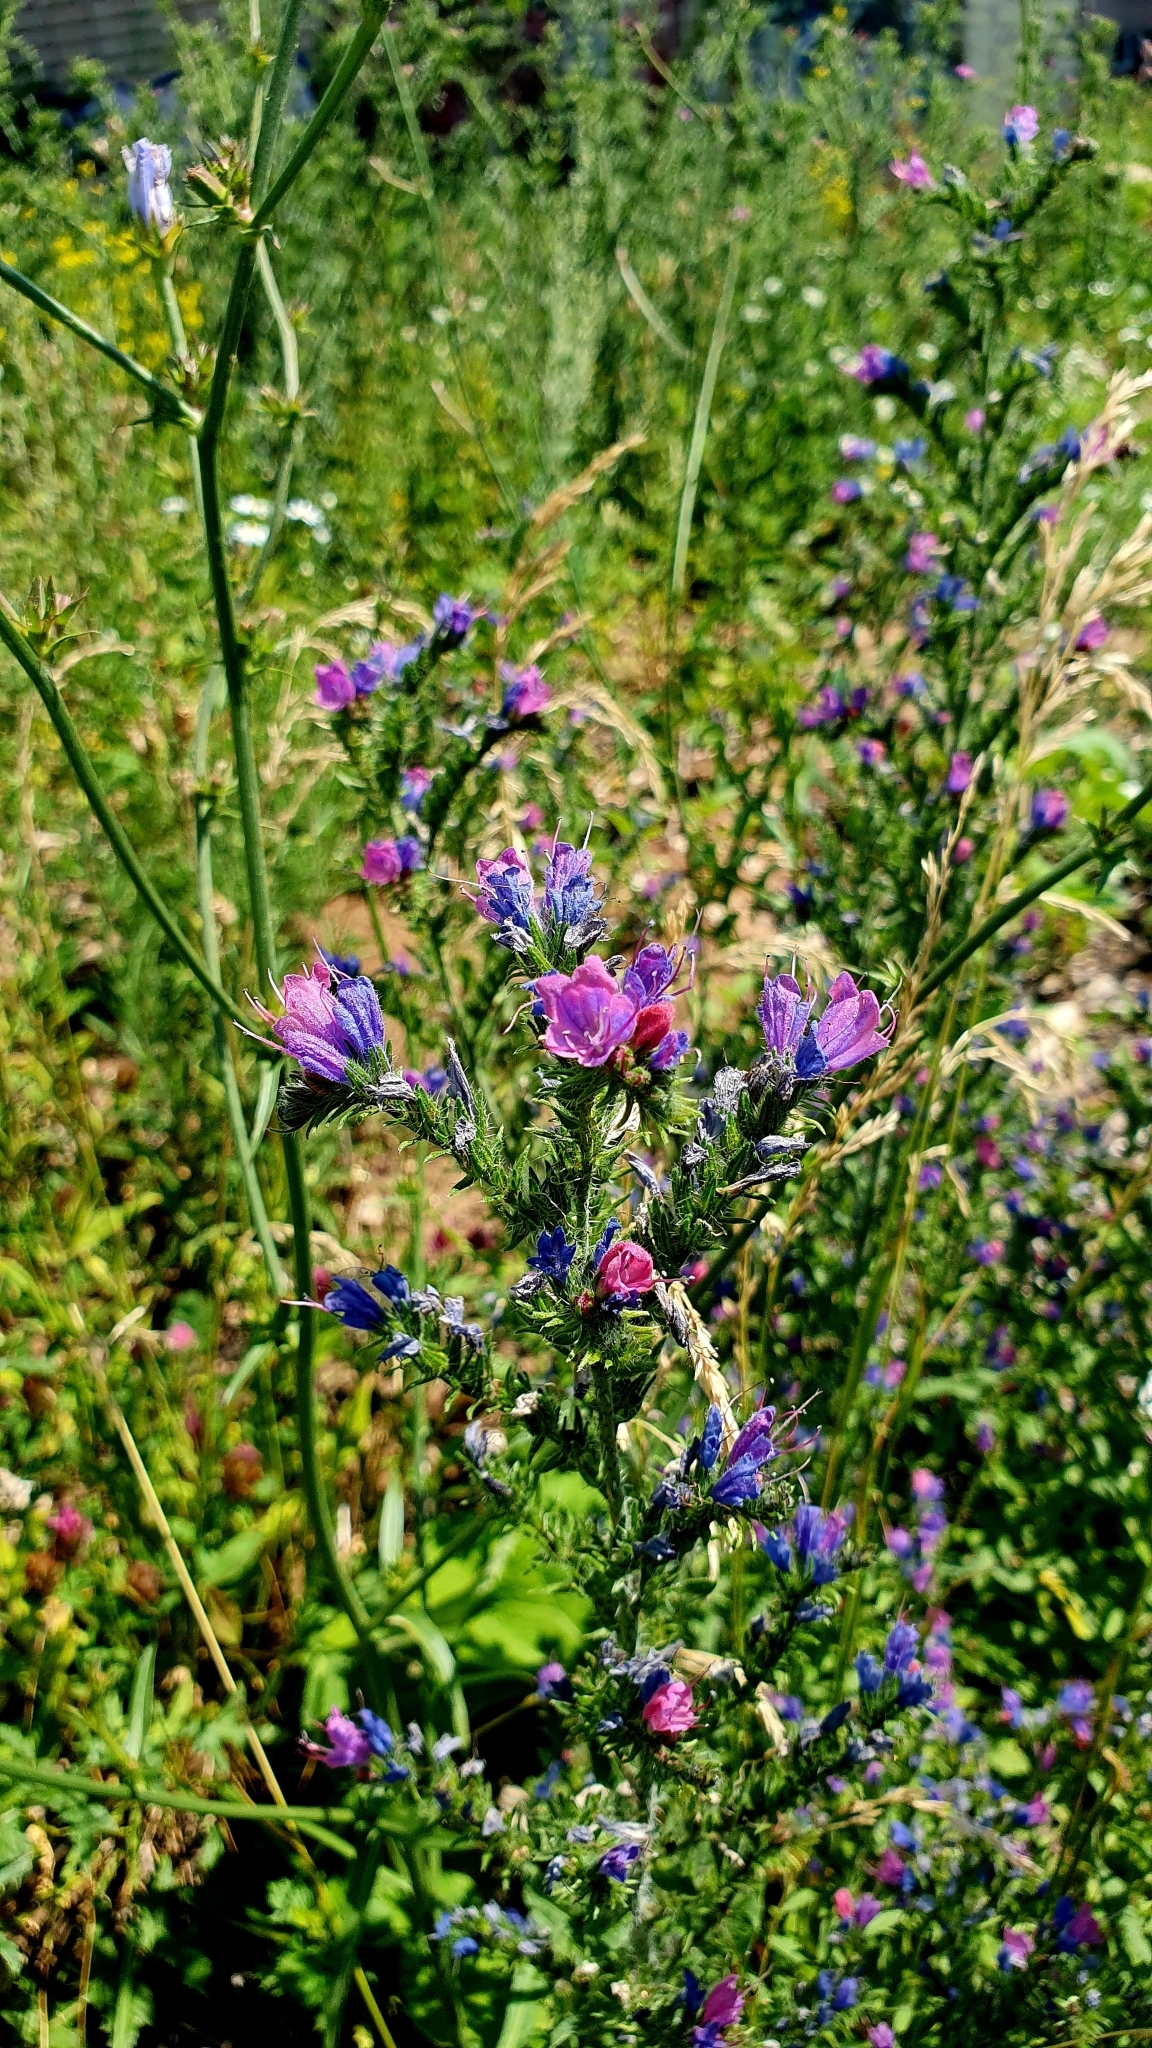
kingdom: Plantae
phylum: Tracheophyta
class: Magnoliopsida
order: Boraginales
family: Boraginaceae
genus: Echium
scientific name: Echium vulgare
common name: Common viper's bugloss
